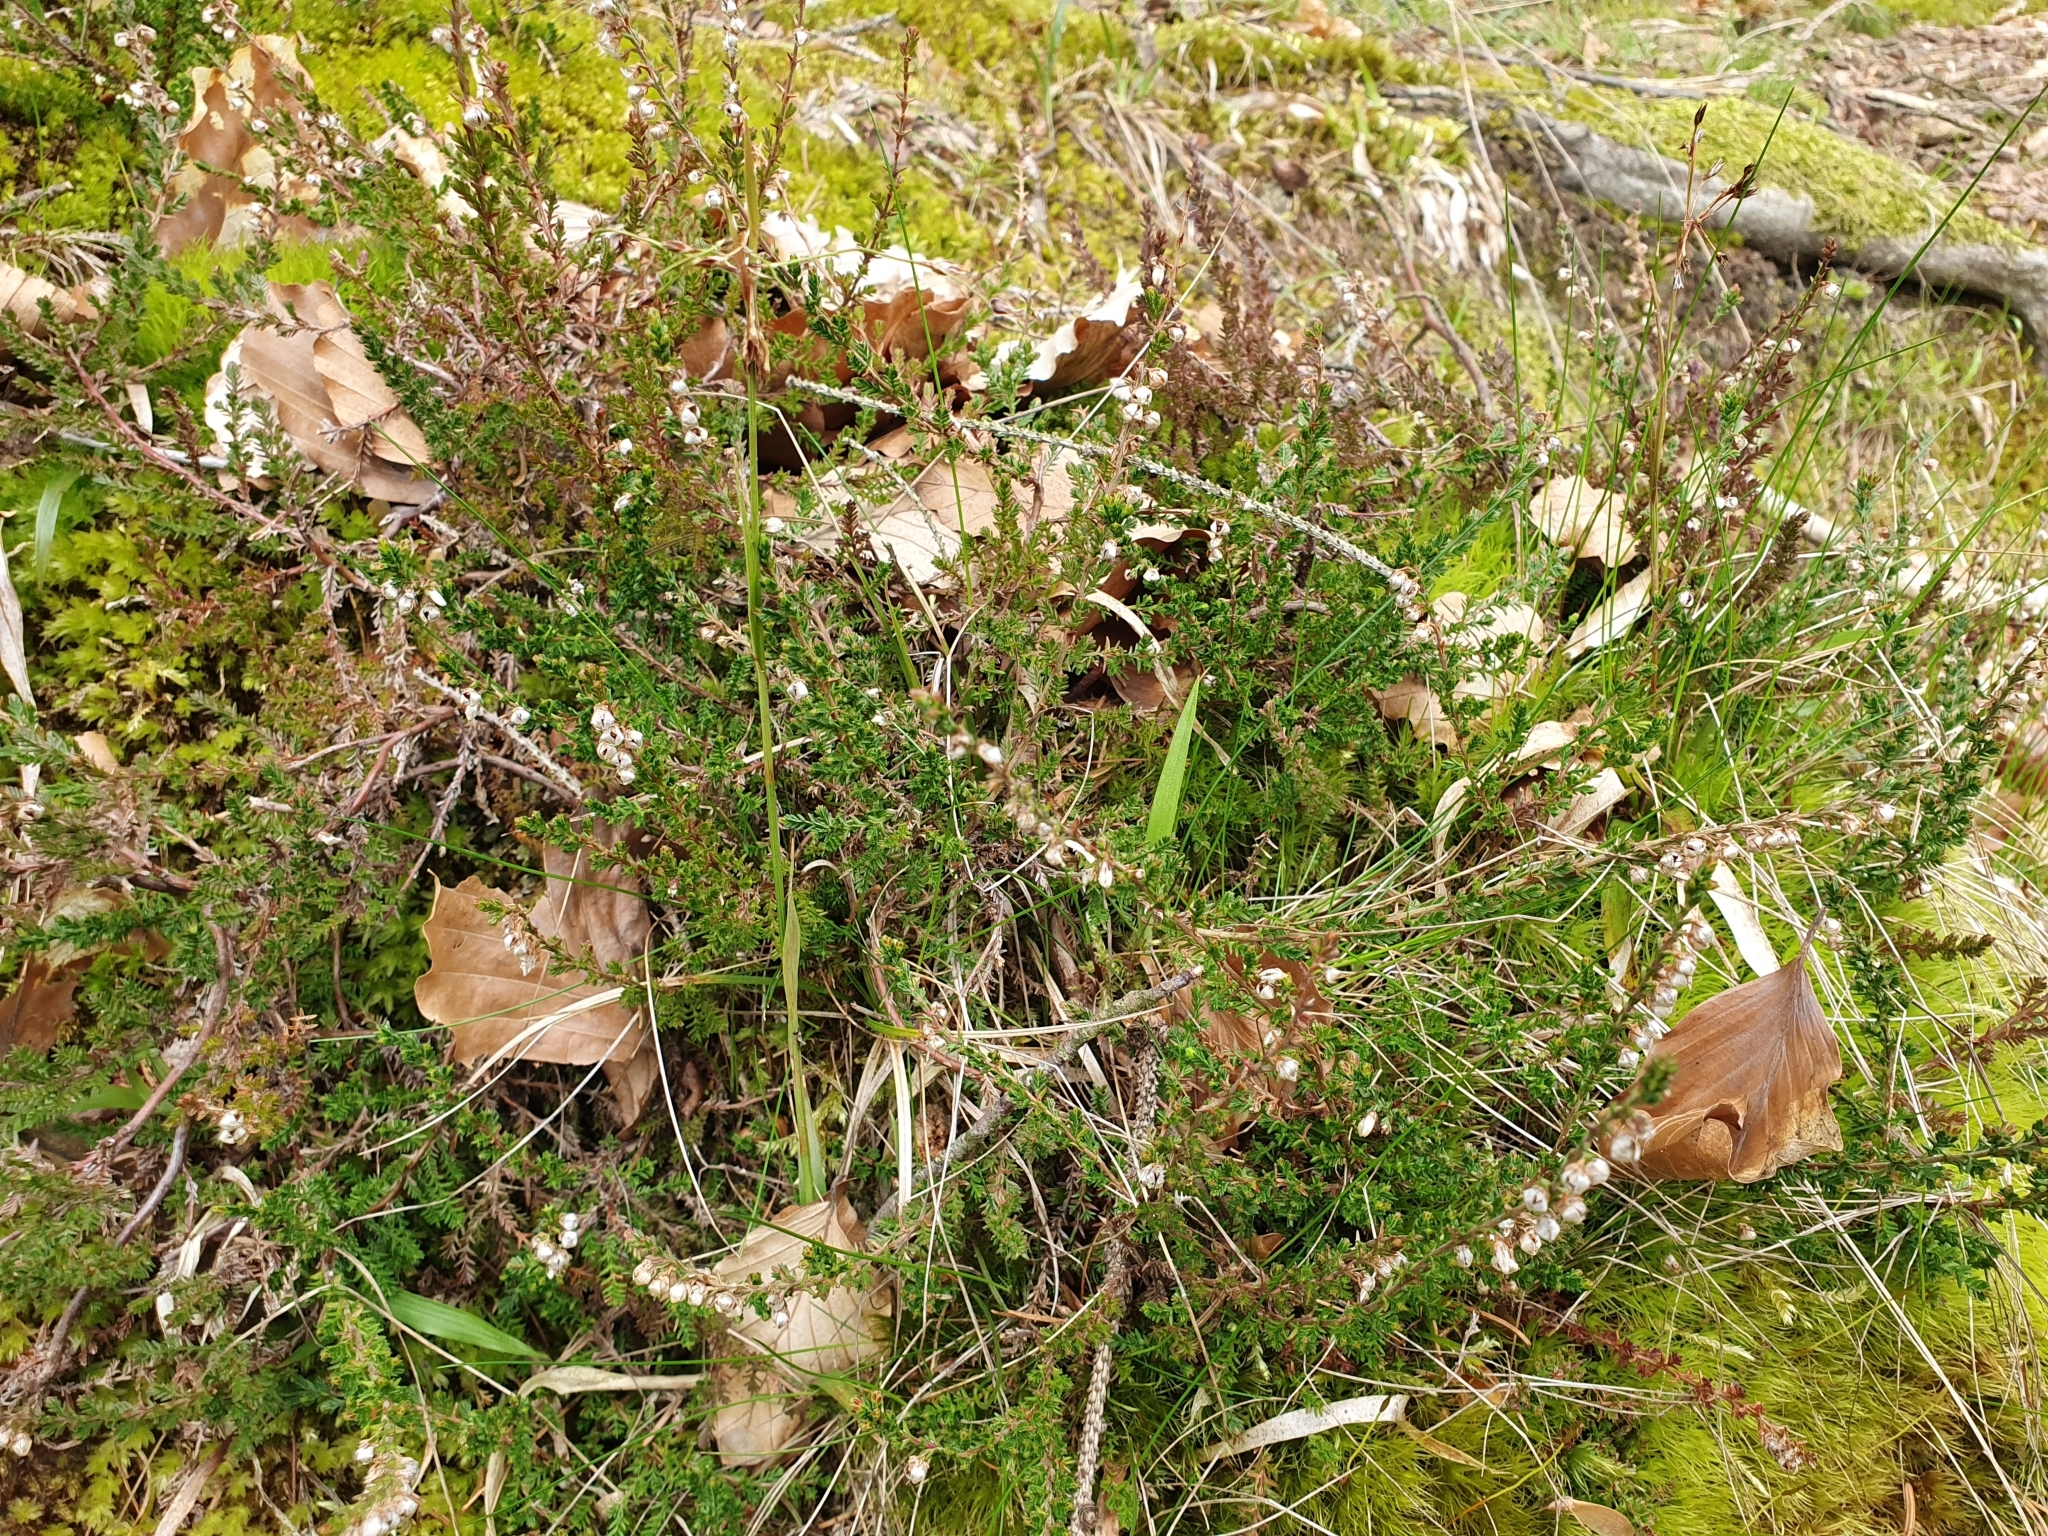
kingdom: Plantae
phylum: Tracheophyta
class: Magnoliopsida
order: Ericales
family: Ericaceae
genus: Calluna
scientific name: Calluna vulgaris
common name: Heather
